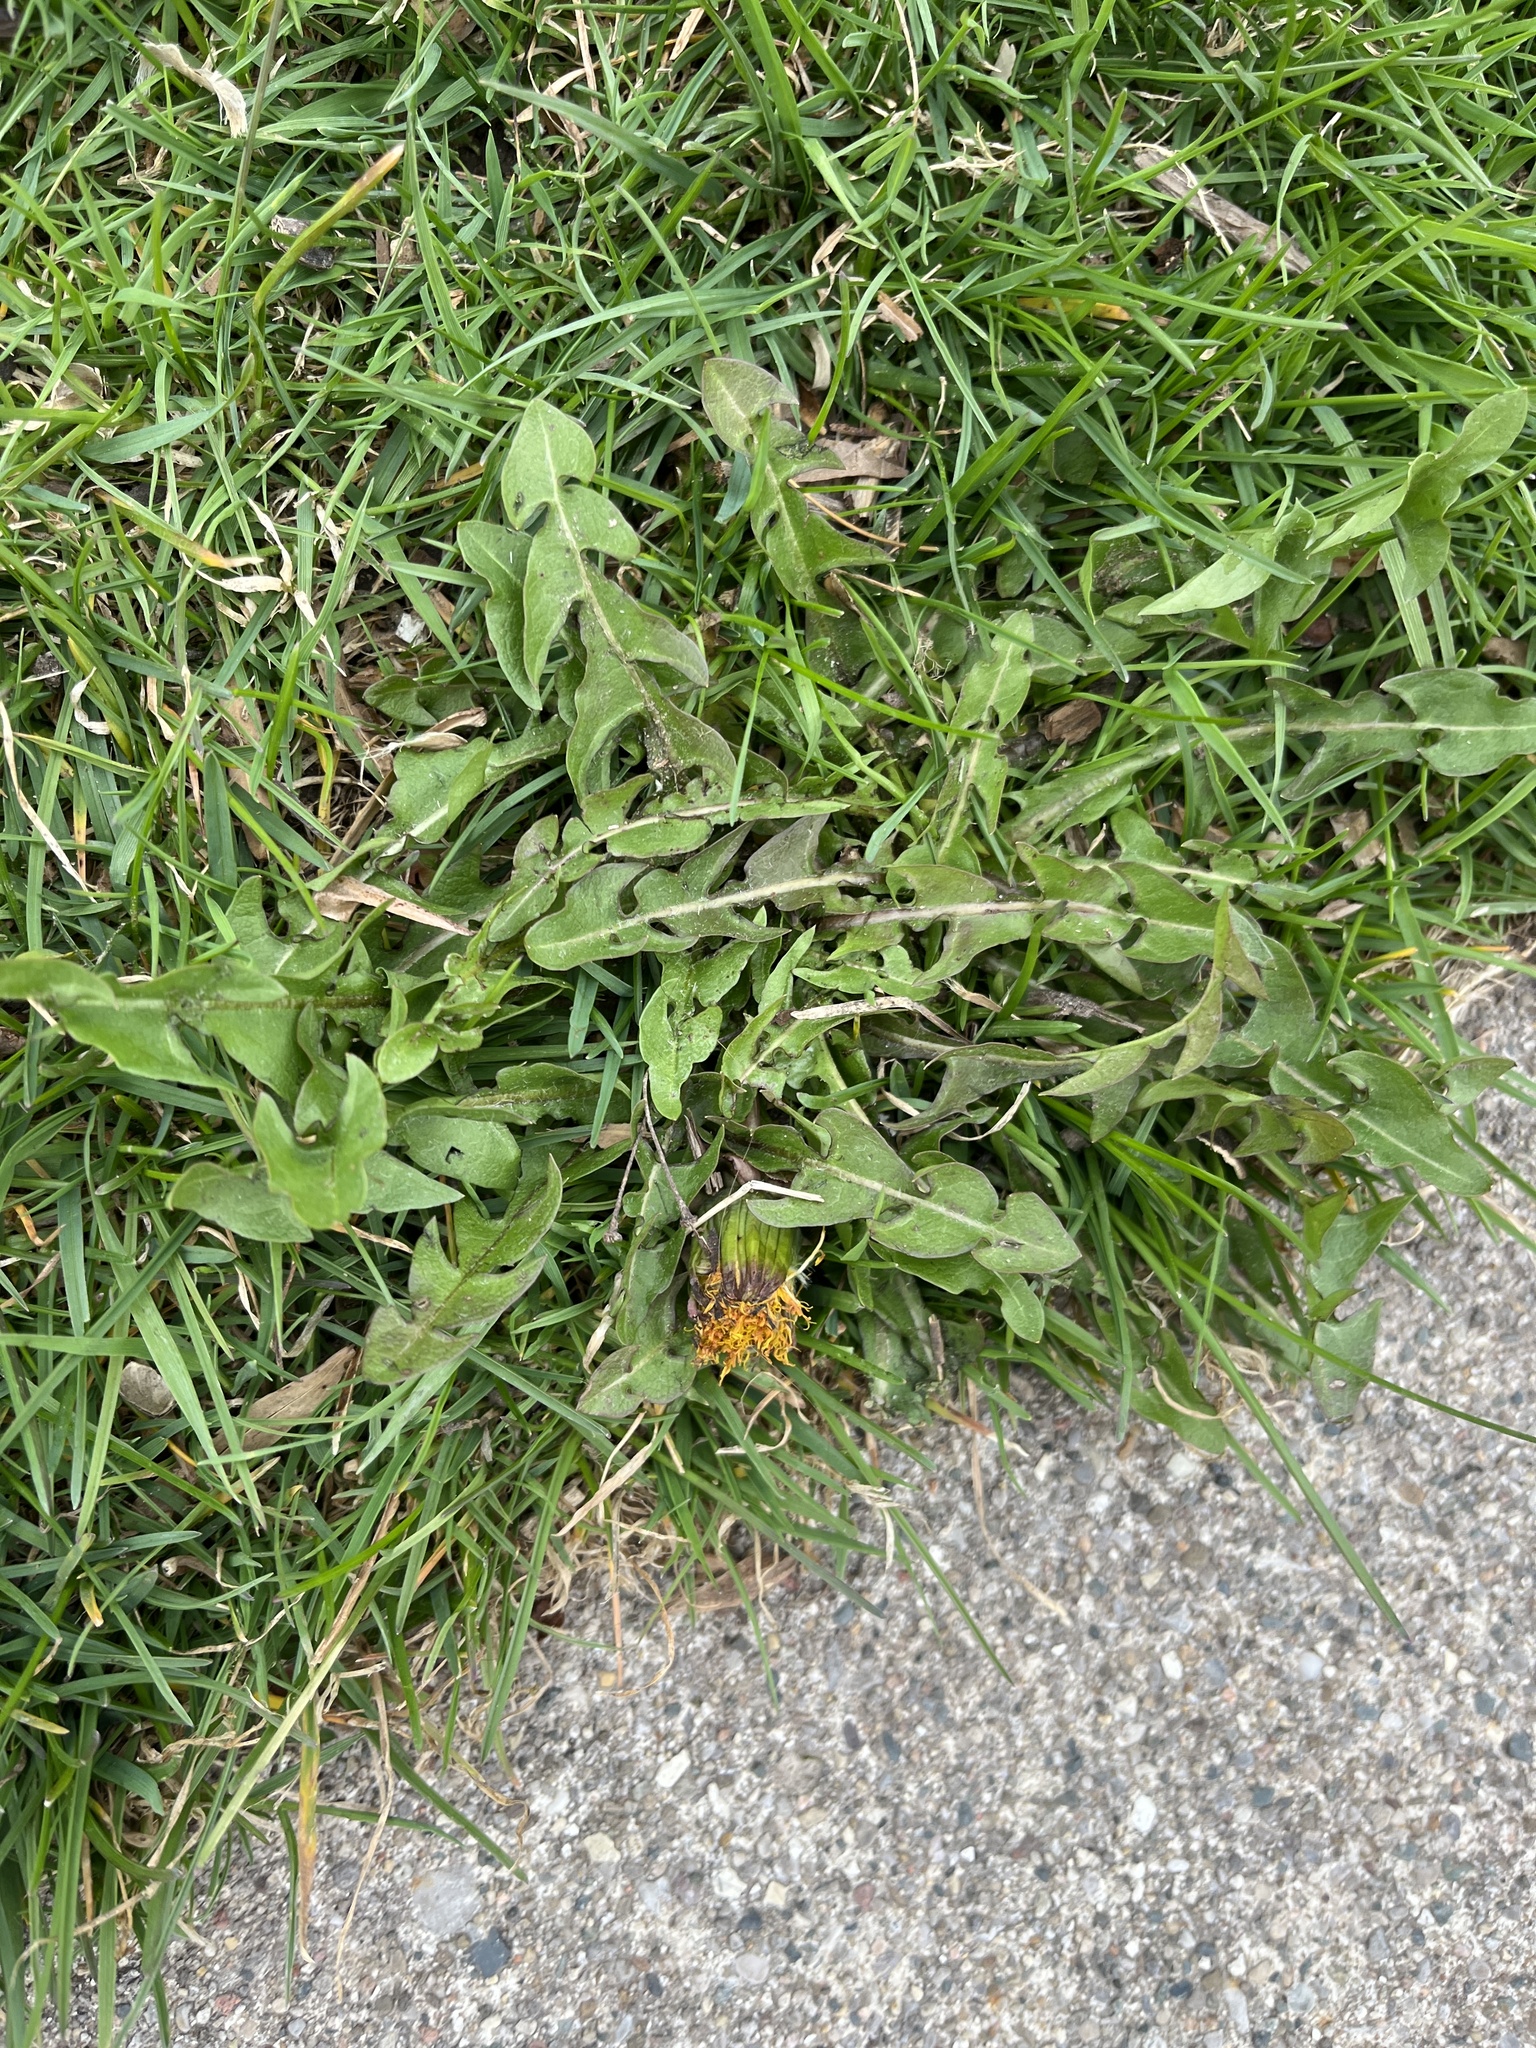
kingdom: Plantae
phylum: Tracheophyta
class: Magnoliopsida
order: Asterales
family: Asteraceae
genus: Taraxacum
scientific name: Taraxacum officinale
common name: Common dandelion
